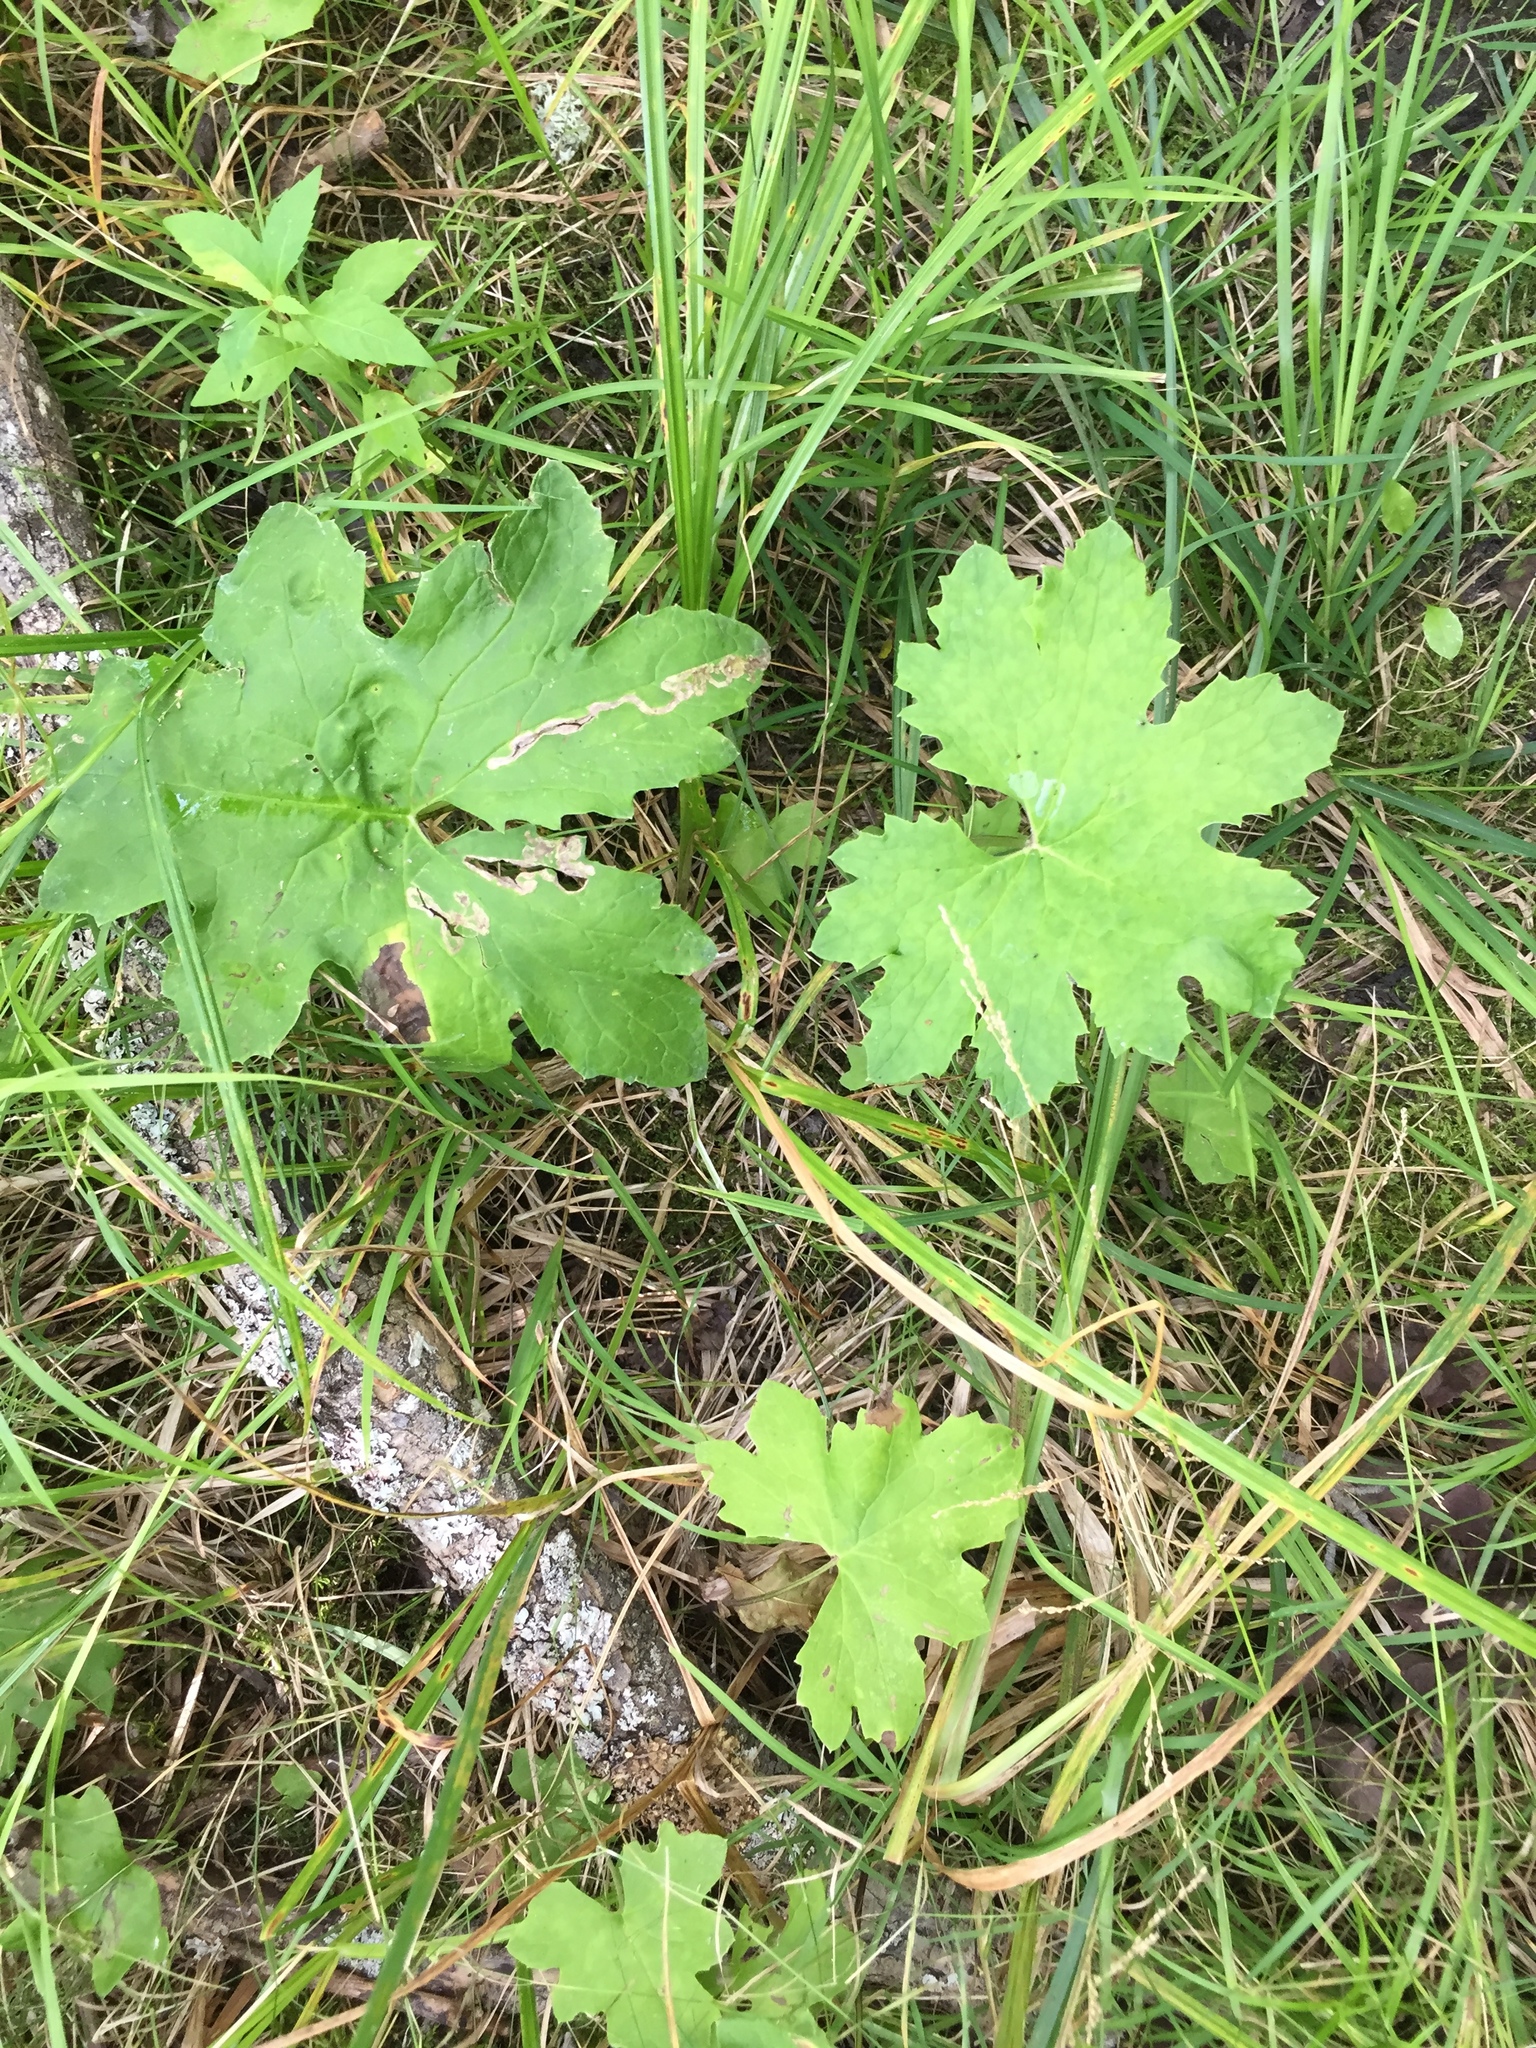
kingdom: Plantae
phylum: Tracheophyta
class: Magnoliopsida
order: Asterales
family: Asteraceae
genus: Petasites
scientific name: Petasites frigidus
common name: Arctic butterbur
